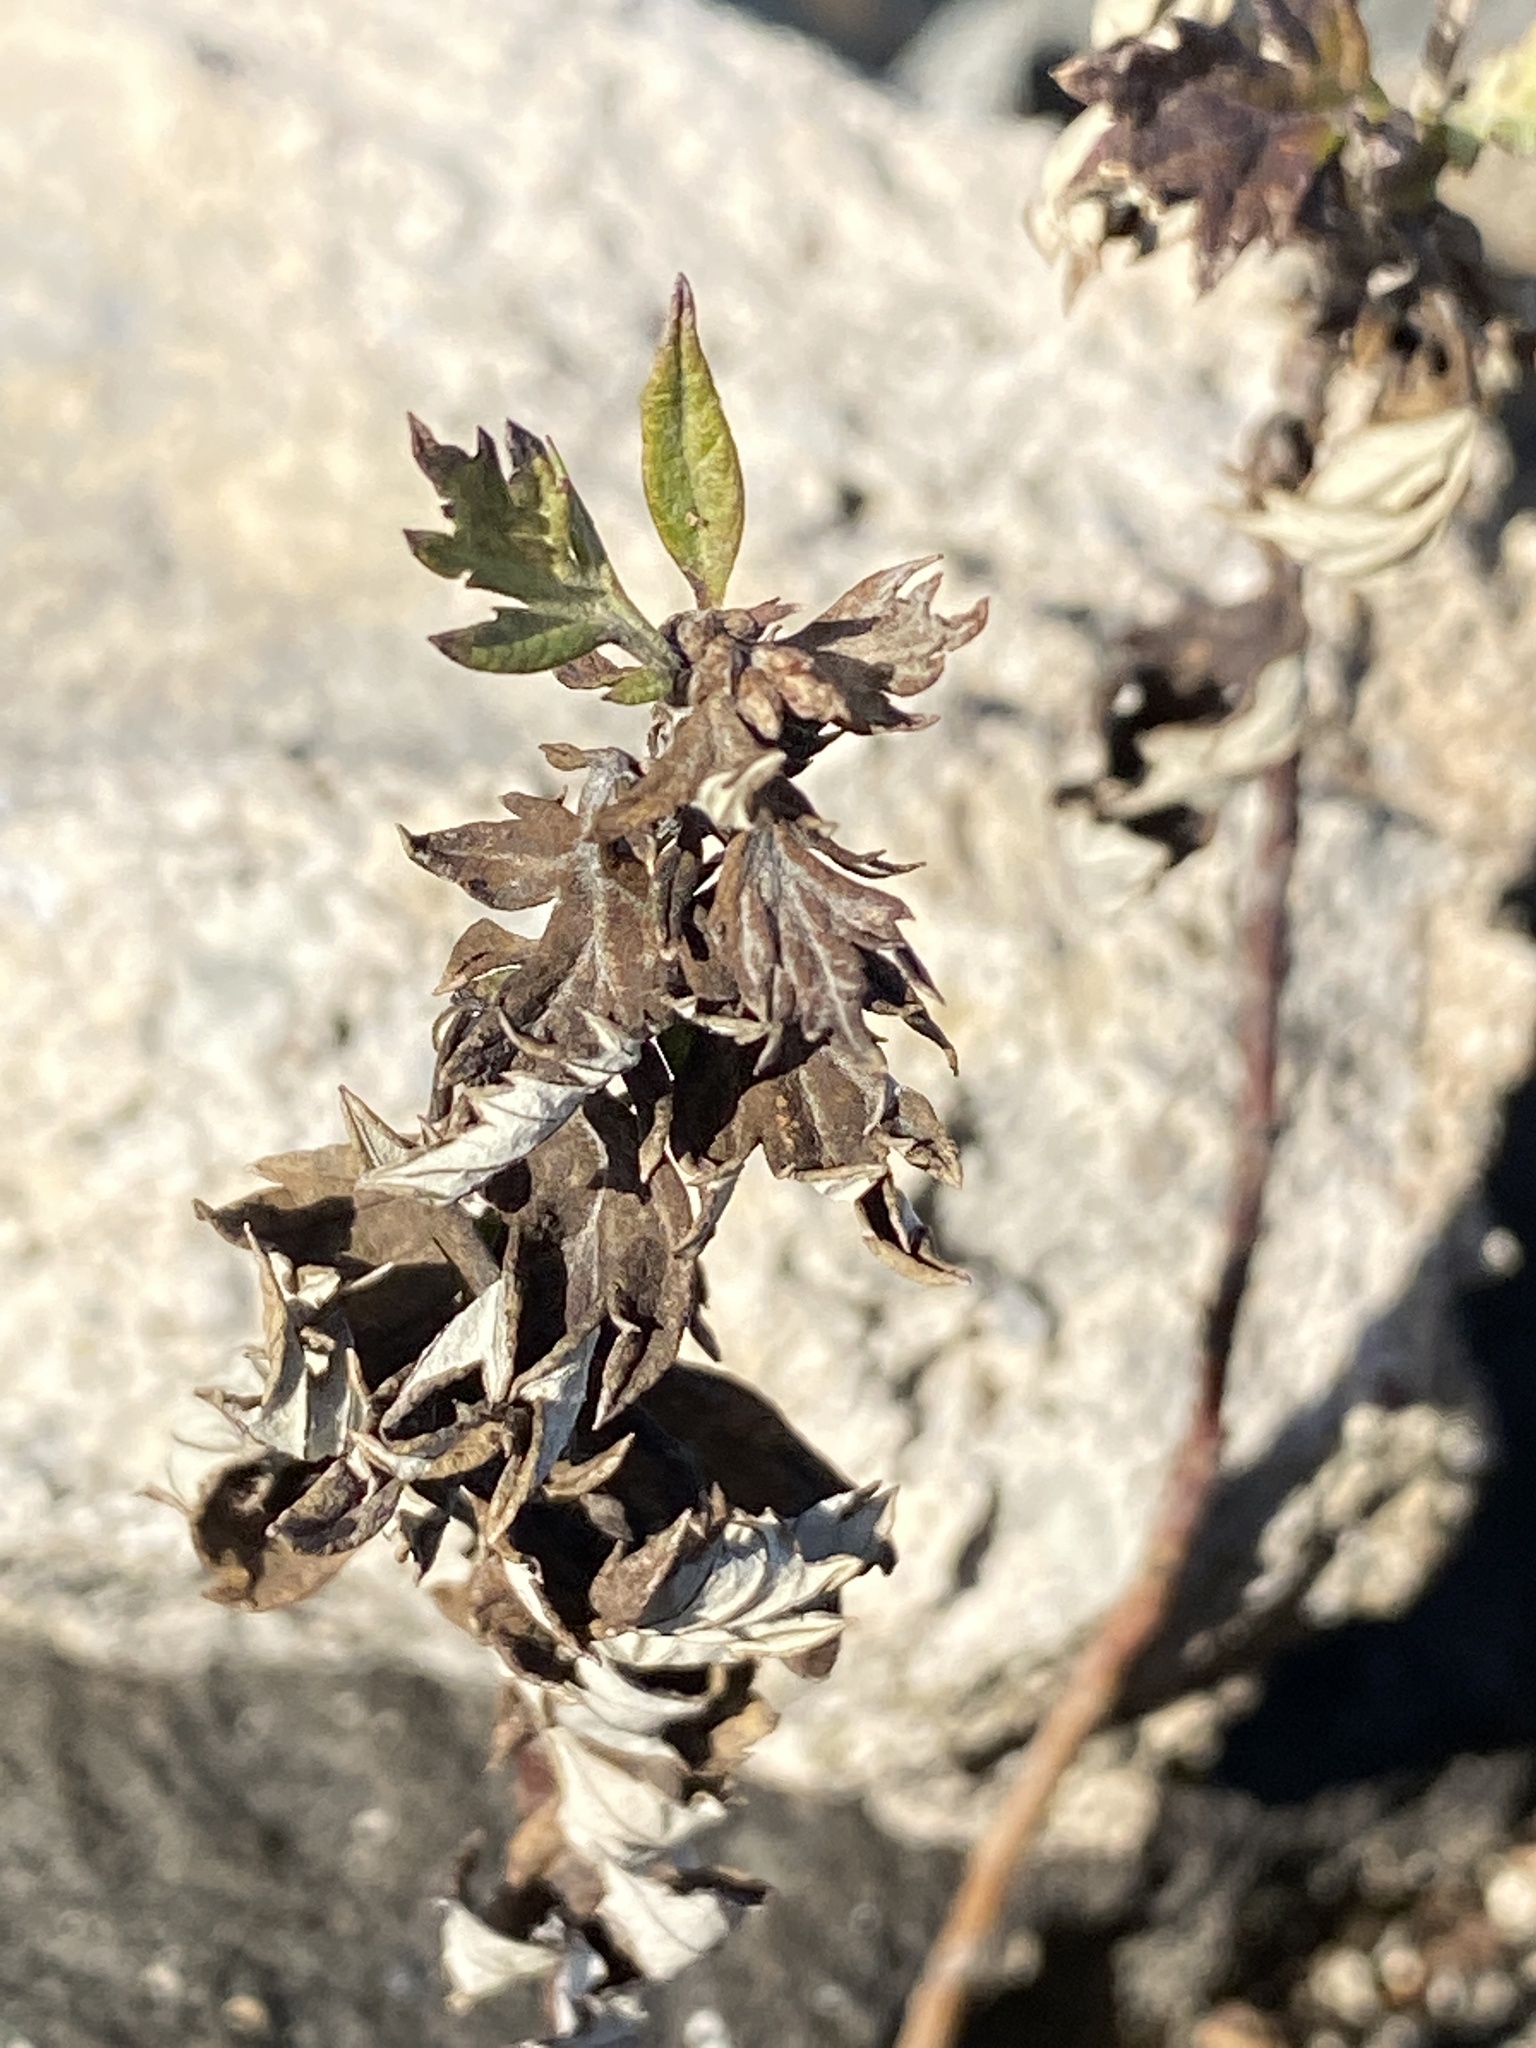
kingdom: Plantae
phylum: Tracheophyta
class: Magnoliopsida
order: Asterales
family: Asteraceae
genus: Artemisia
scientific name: Artemisia vulgaris
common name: Mugwort
